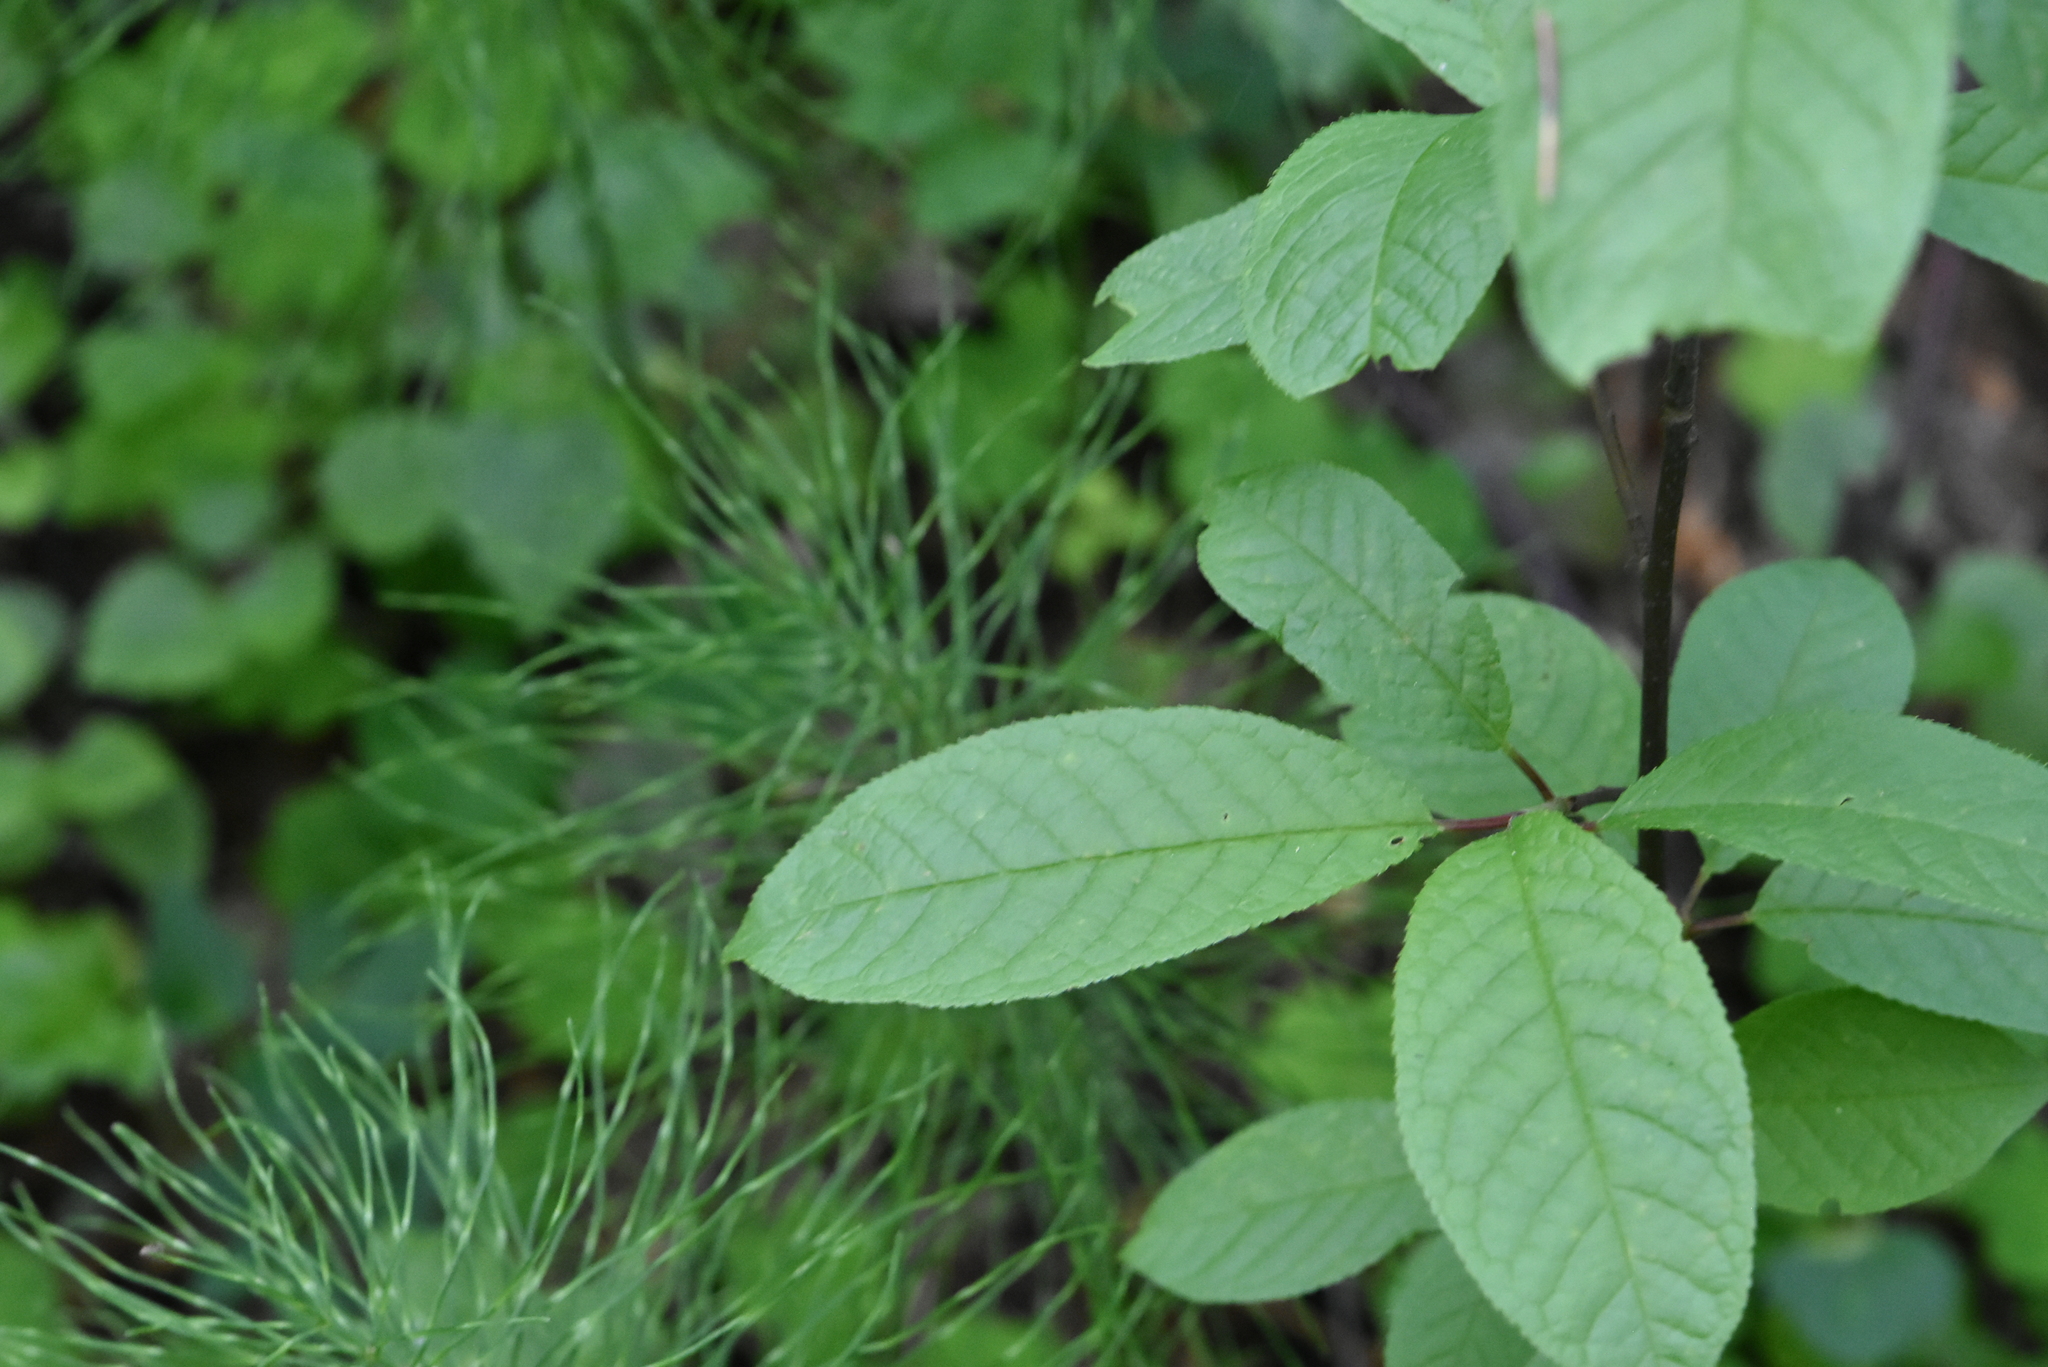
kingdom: Plantae
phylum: Tracheophyta
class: Magnoliopsida
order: Rosales
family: Rosaceae
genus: Prunus
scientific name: Prunus padus
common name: Bird cherry
